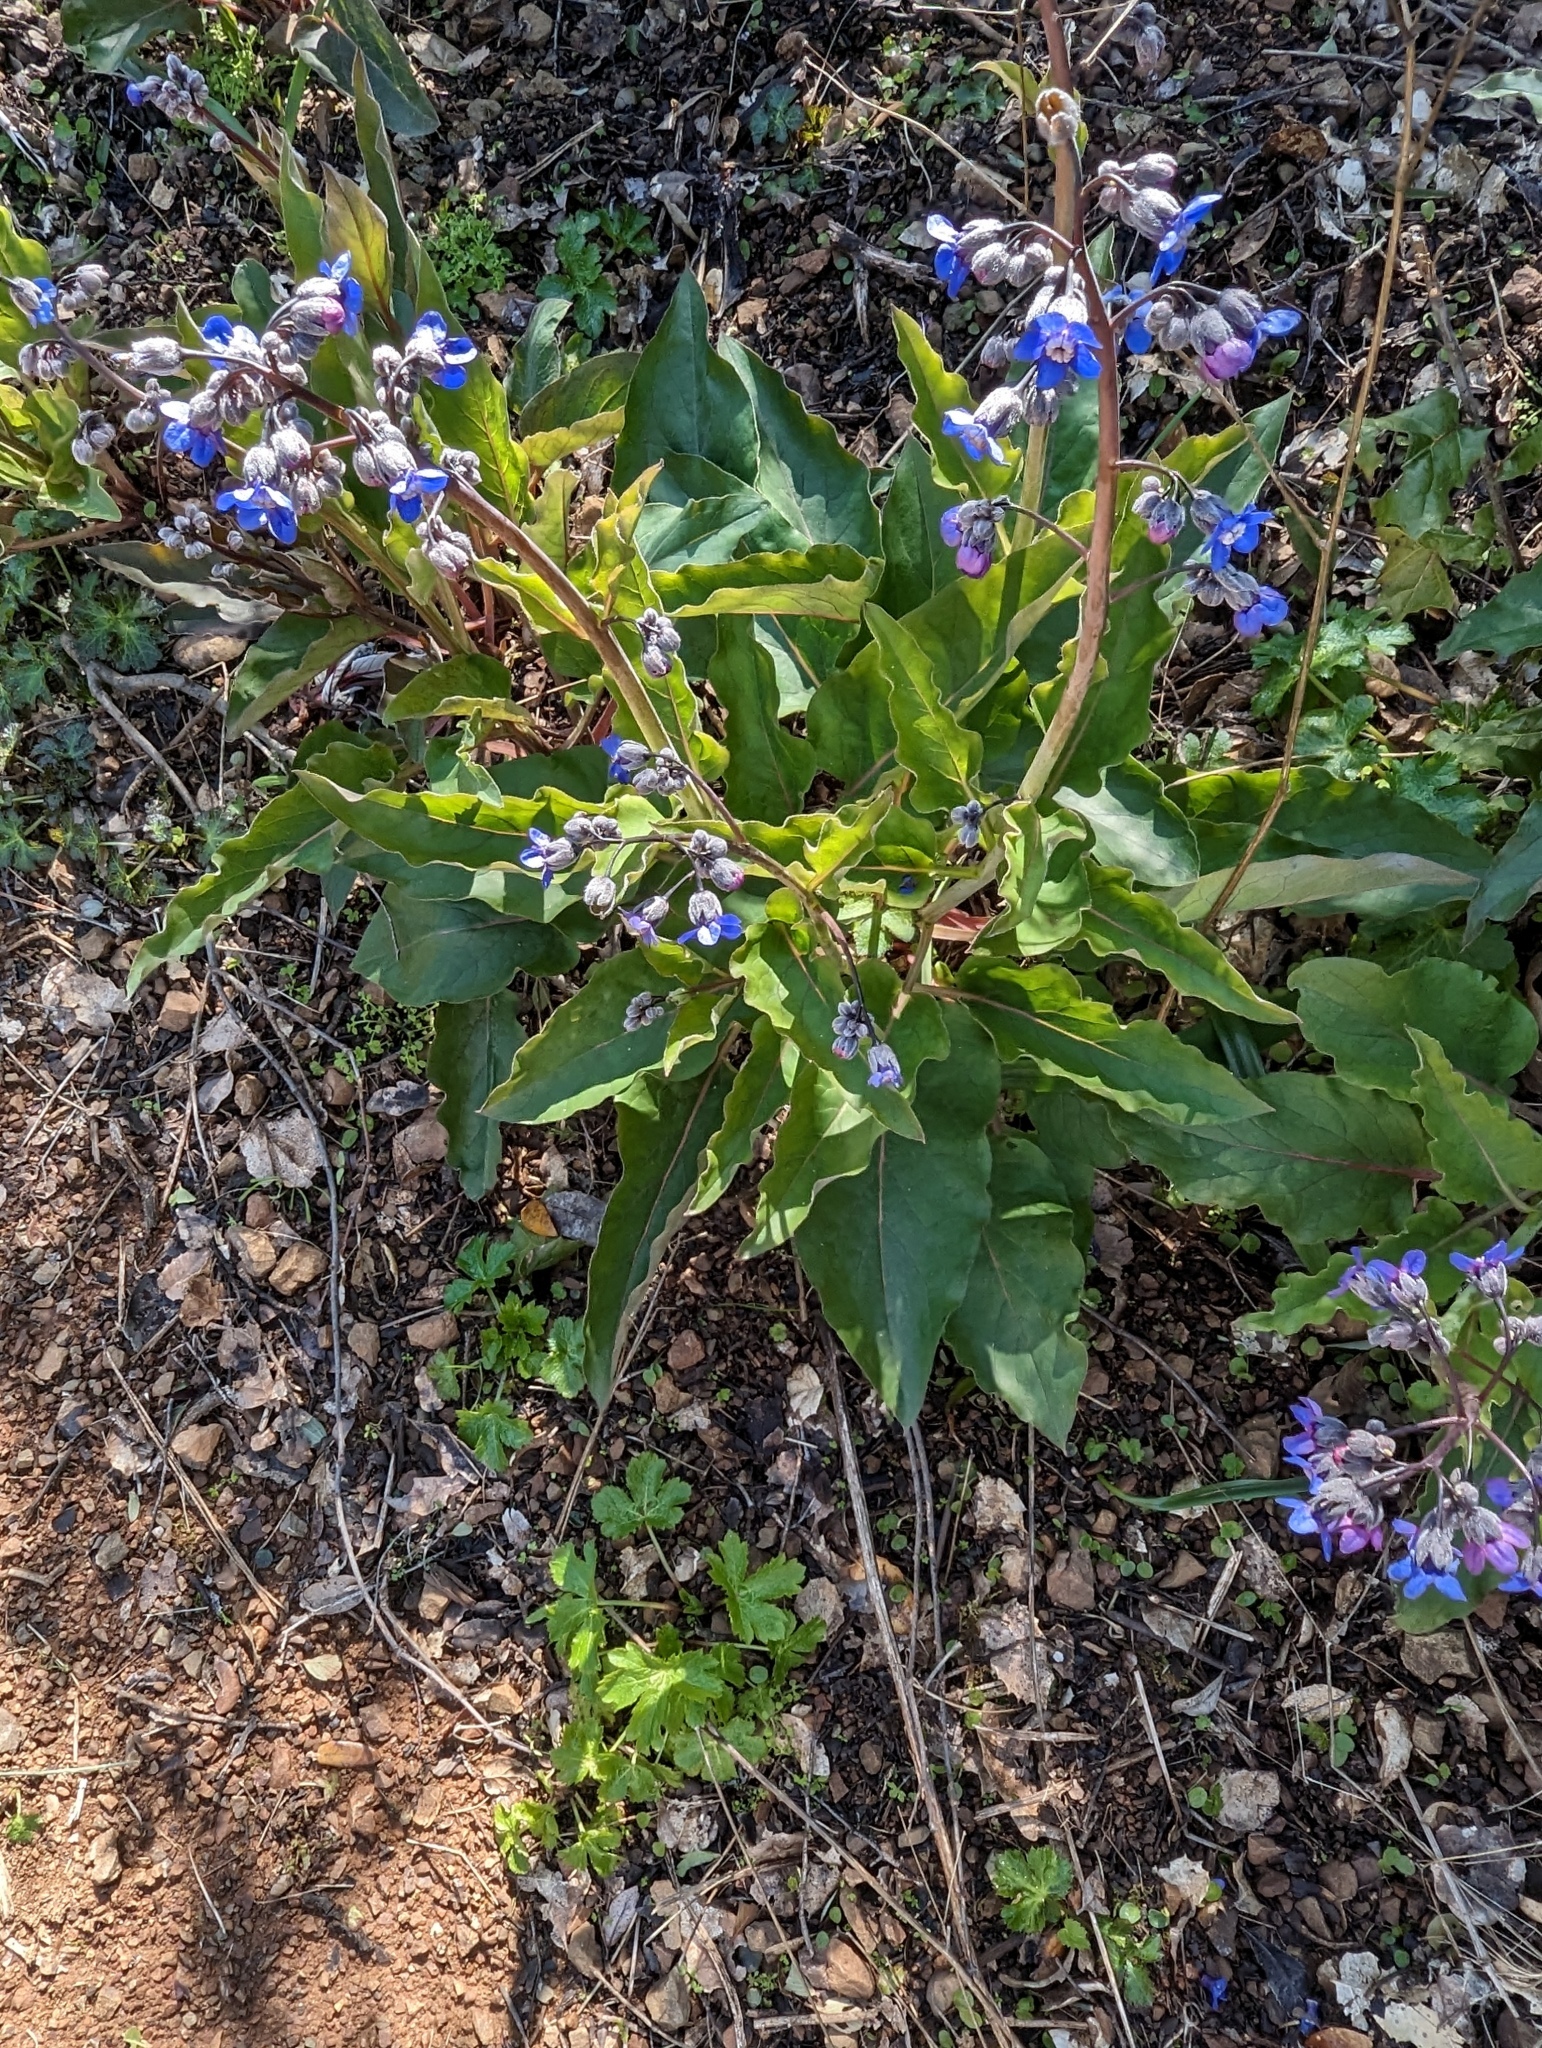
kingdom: Plantae
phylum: Tracheophyta
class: Magnoliopsida
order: Boraginales
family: Boraginaceae
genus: Adelinia
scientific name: Adelinia grande
